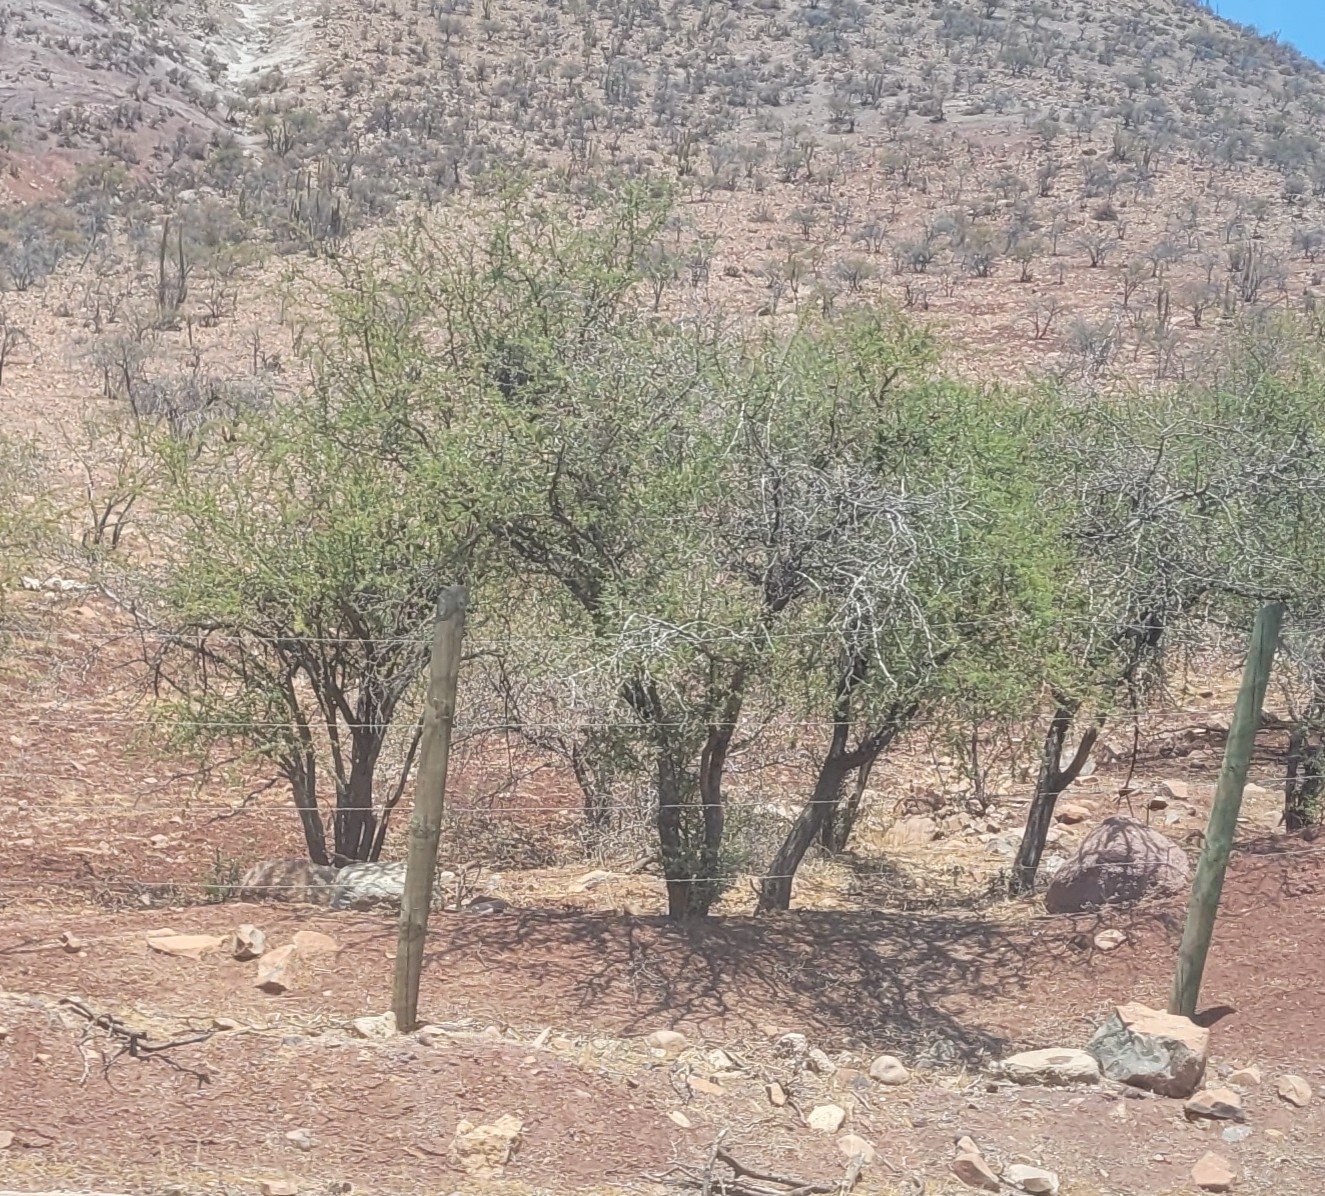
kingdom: Plantae
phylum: Tracheophyta
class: Magnoliopsida
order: Fabales
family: Fabaceae
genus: Vachellia
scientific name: Vachellia caven
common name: Roman cassie
